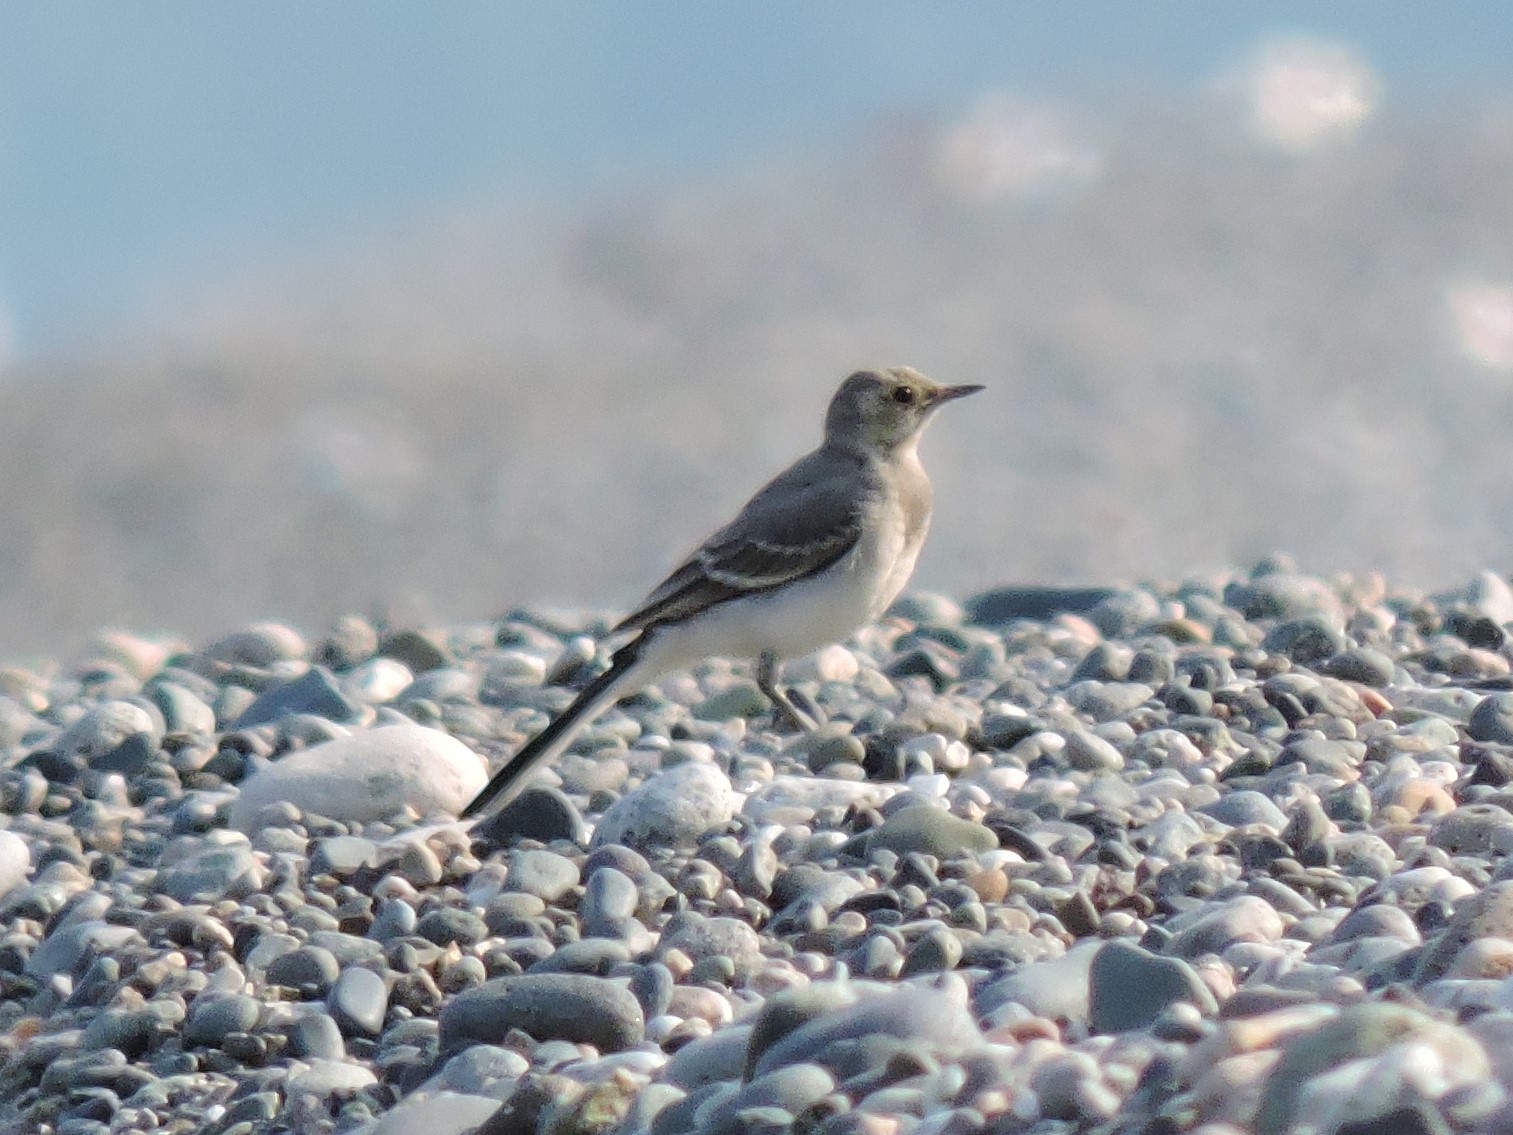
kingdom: Animalia
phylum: Chordata
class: Aves
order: Passeriformes
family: Motacillidae
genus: Motacilla
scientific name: Motacilla alba
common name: White wagtail
